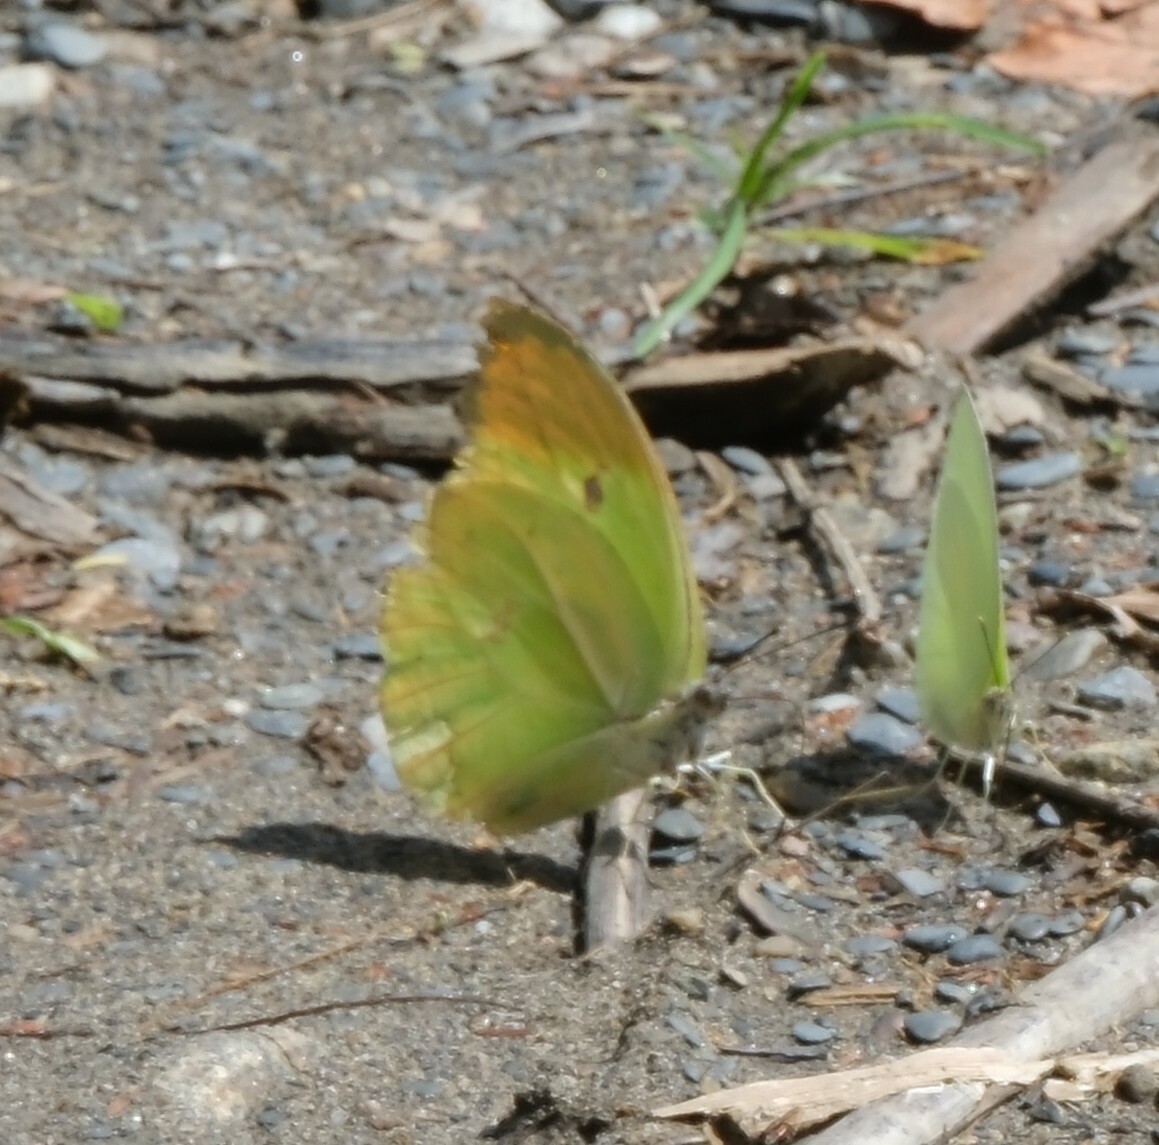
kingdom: Animalia
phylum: Arthropoda
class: Insecta
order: Lepidoptera
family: Pieridae
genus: Anteos
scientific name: Anteos menippe
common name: Orangetip angled-sulphur
